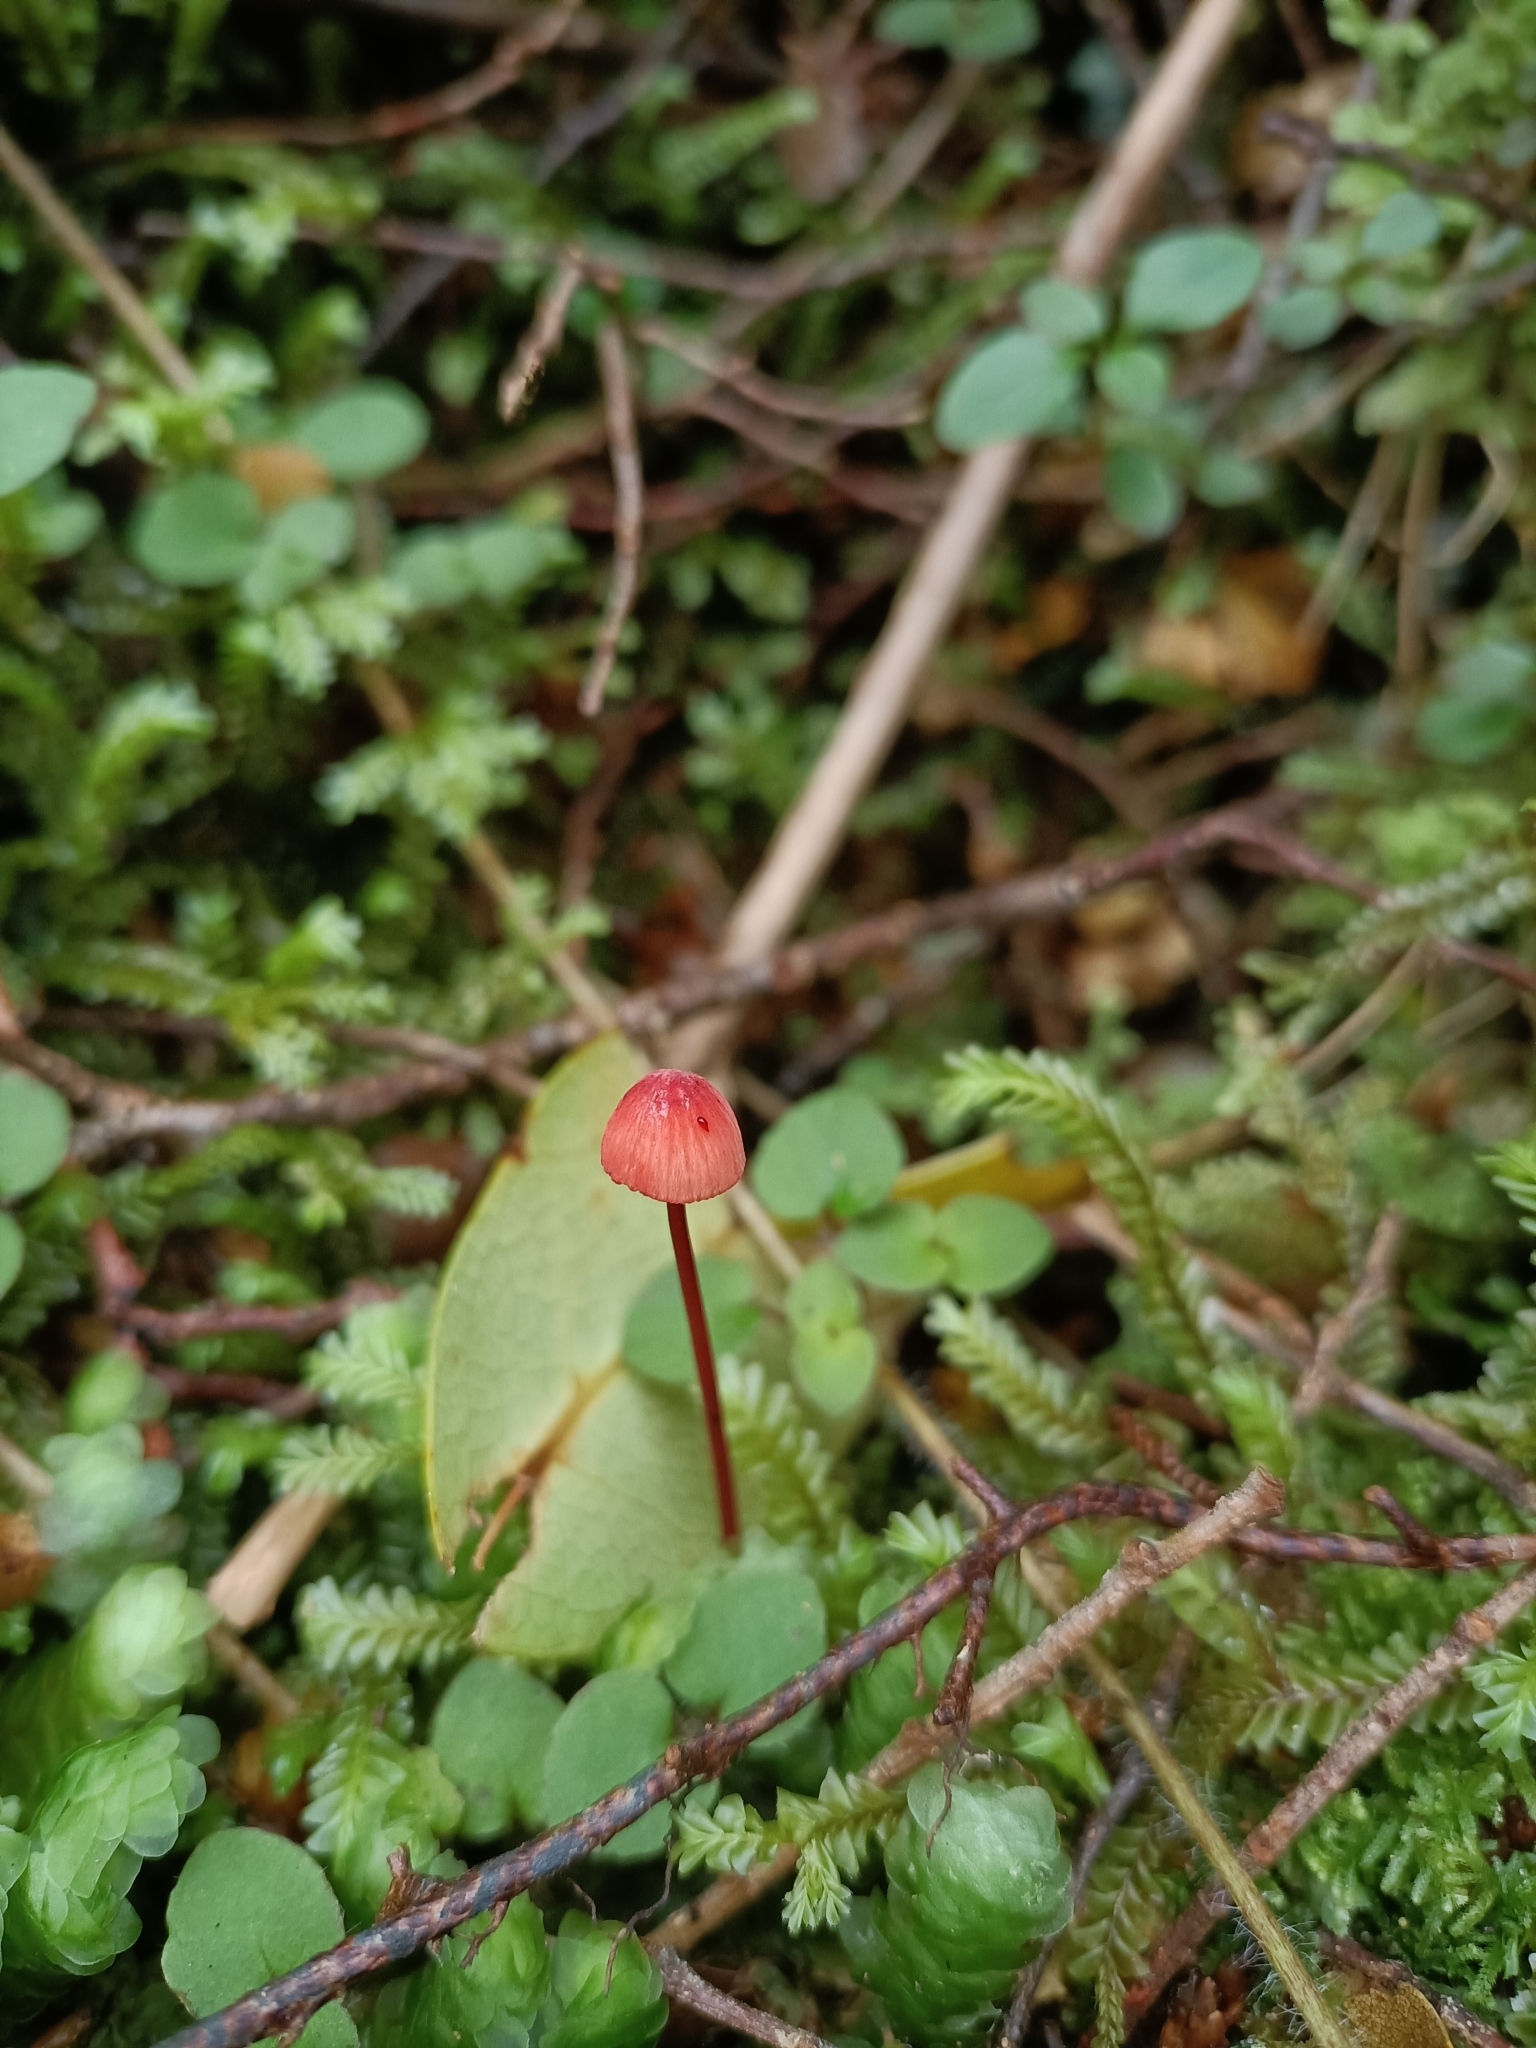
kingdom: Fungi
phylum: Basidiomycota
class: Agaricomycetes
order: Agaricales
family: Mycenaceae
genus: Mycena
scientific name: Mycena ura
